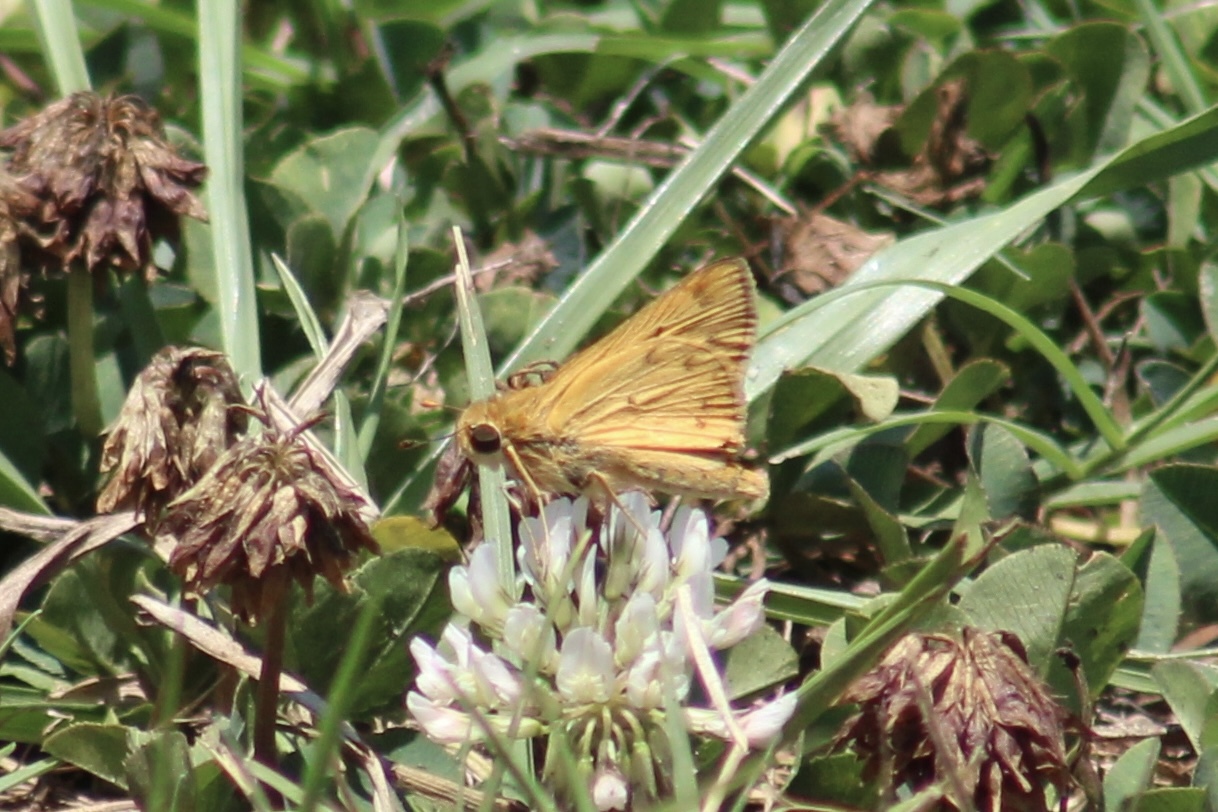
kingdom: Animalia
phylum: Arthropoda
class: Insecta
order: Lepidoptera
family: Hesperiidae
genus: Hylephila
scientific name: Hylephila phyleus
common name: Fiery skipper
